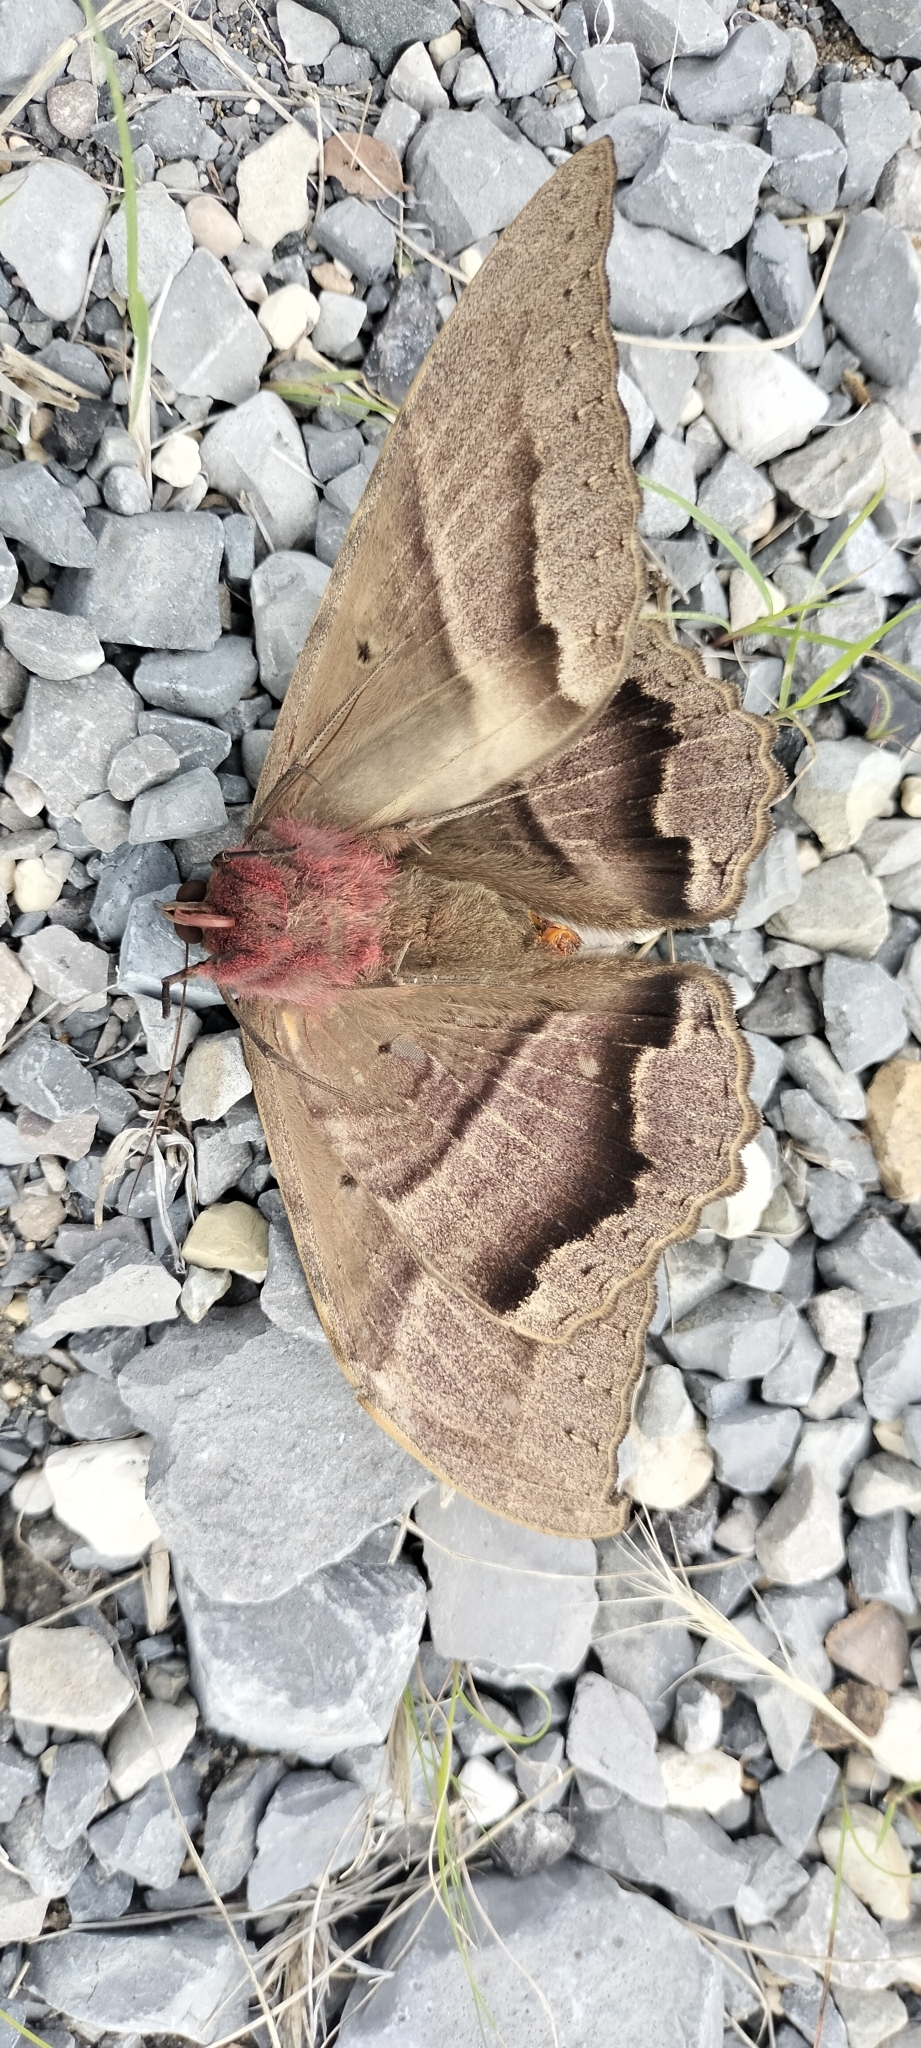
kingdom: Animalia
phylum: Arthropoda
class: Insecta
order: Lepidoptera
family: Erebidae
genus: Ascalapha
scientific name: Ascalapha odorata
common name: Black witch
